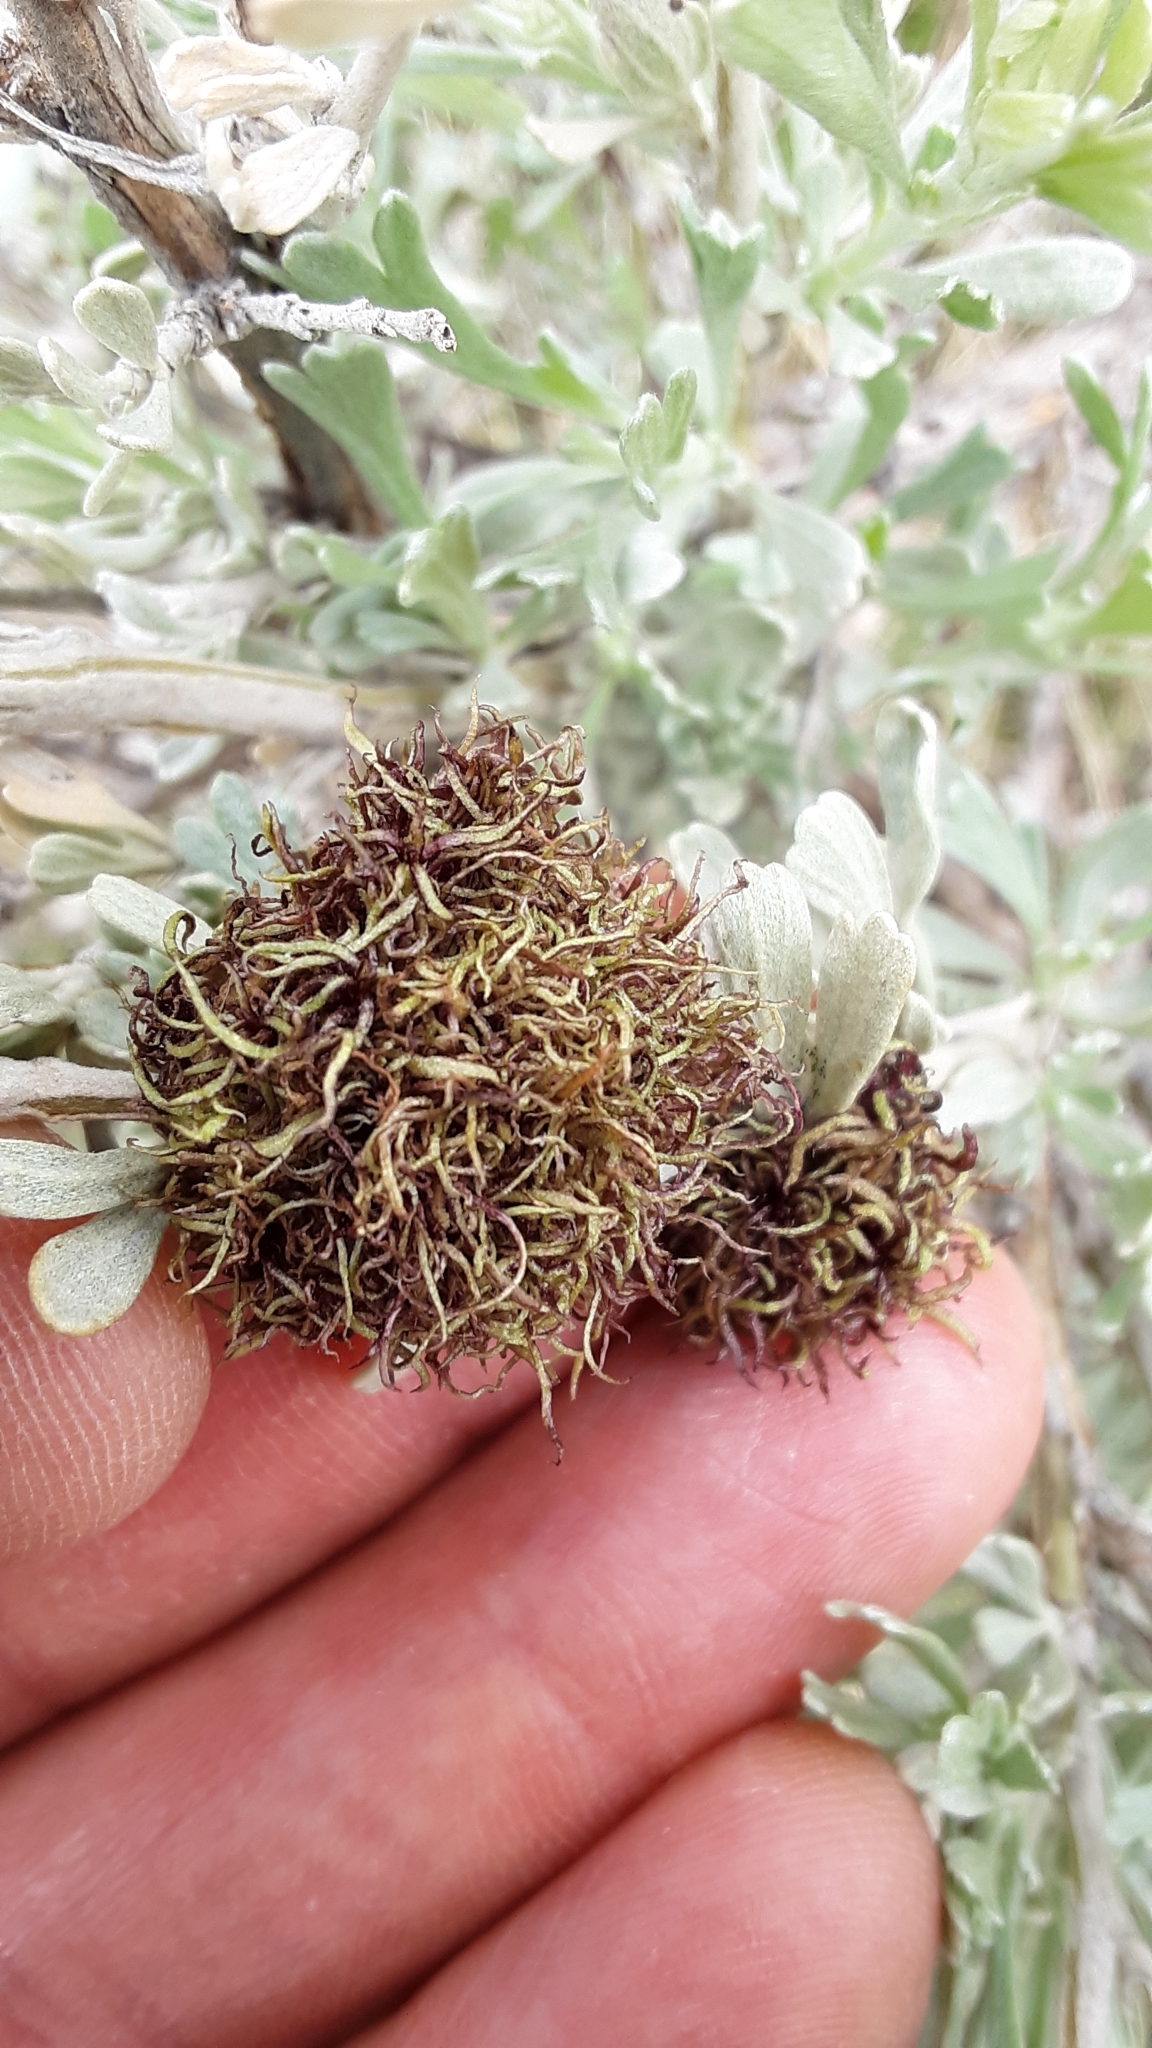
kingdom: Animalia
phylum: Arthropoda
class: Insecta
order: Diptera
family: Cecidomyiidae
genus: Rhopalomyia
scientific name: Rhopalomyia medusa
